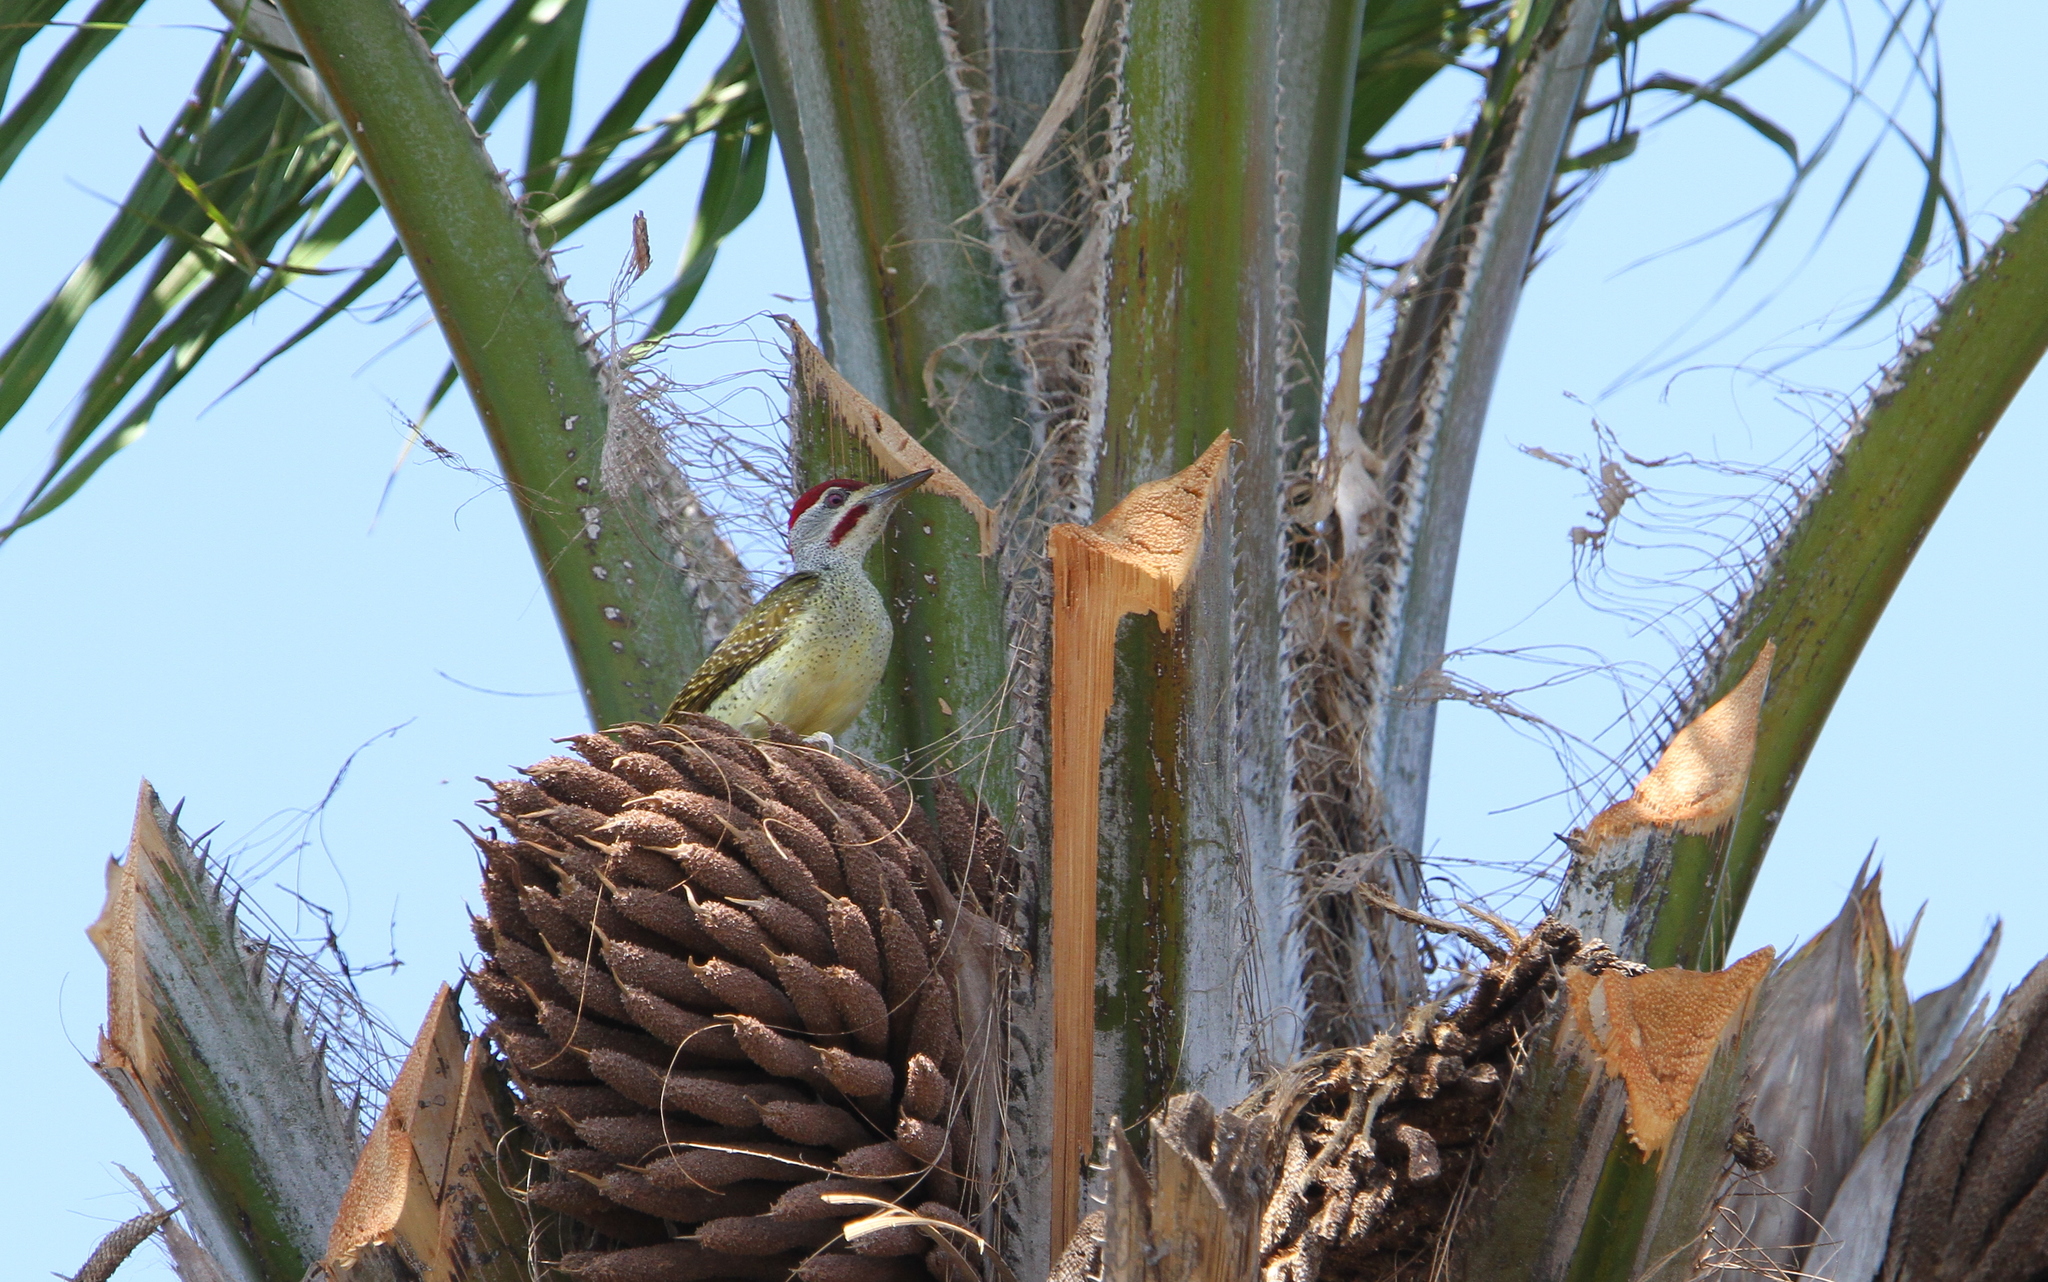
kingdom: Animalia
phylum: Chordata
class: Aves
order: Piciformes
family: Picidae
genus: Campethera
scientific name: Campethera punctuligera
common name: Fine-spotted woodpecker
